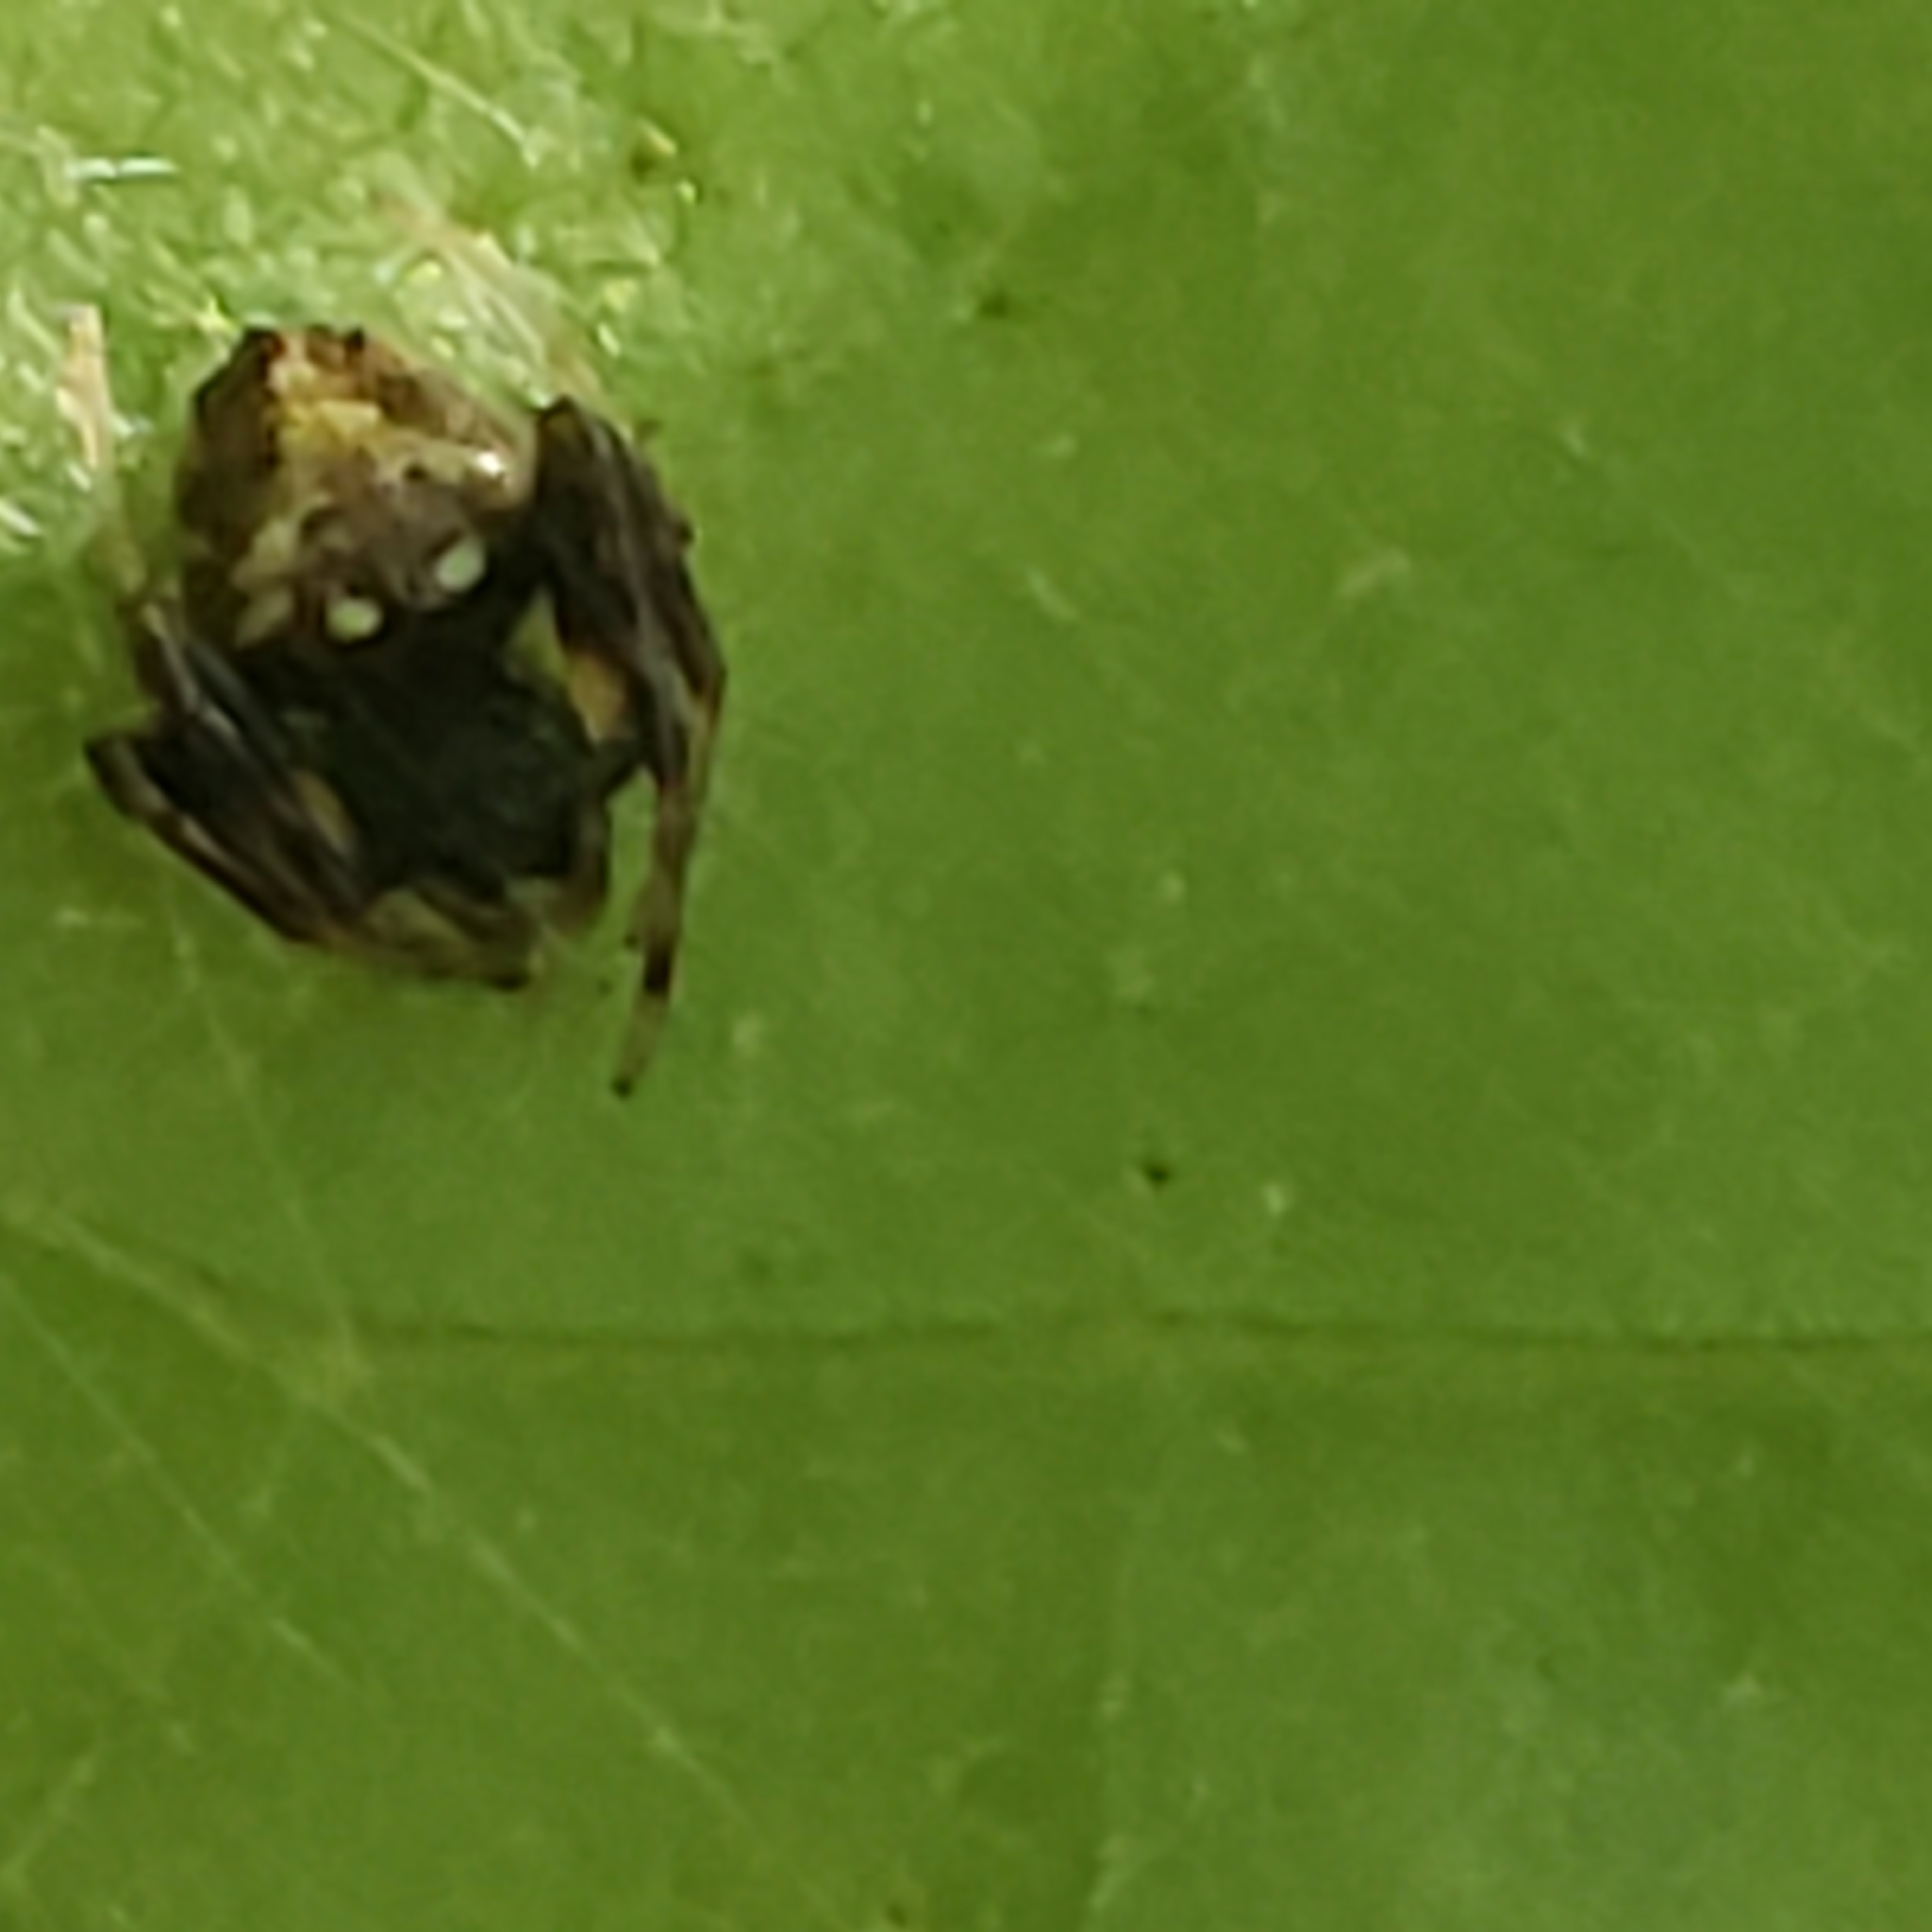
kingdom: Animalia
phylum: Arthropoda
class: Arachnida
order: Araneae
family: Araneidae
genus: Verrucosa
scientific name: Verrucosa arenata
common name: Orb weavers
